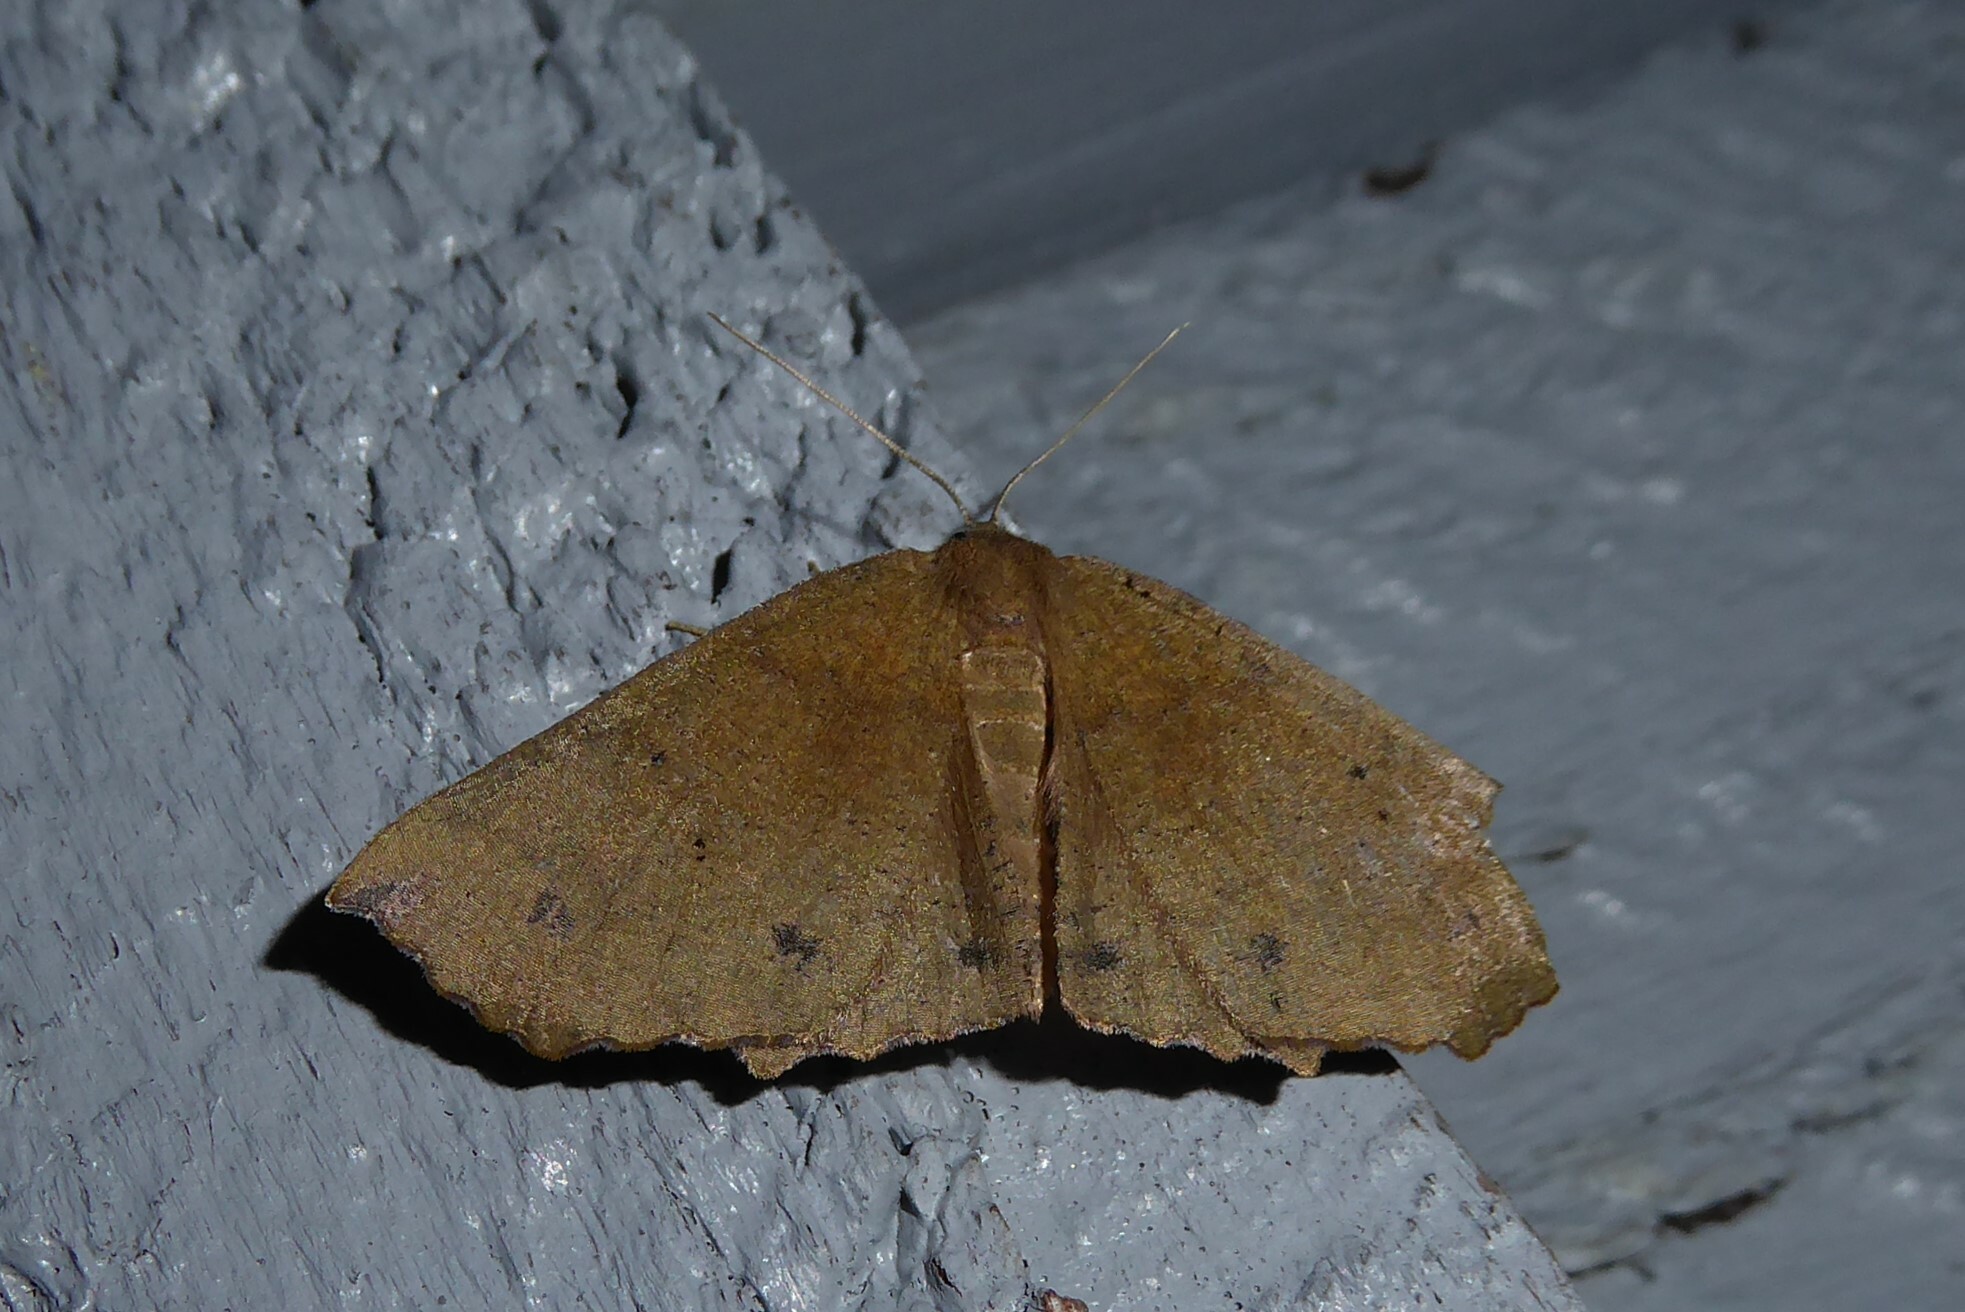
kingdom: Animalia
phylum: Arthropoda
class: Insecta
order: Lepidoptera
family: Geometridae
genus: Xyridacma
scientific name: Xyridacma ustaria
